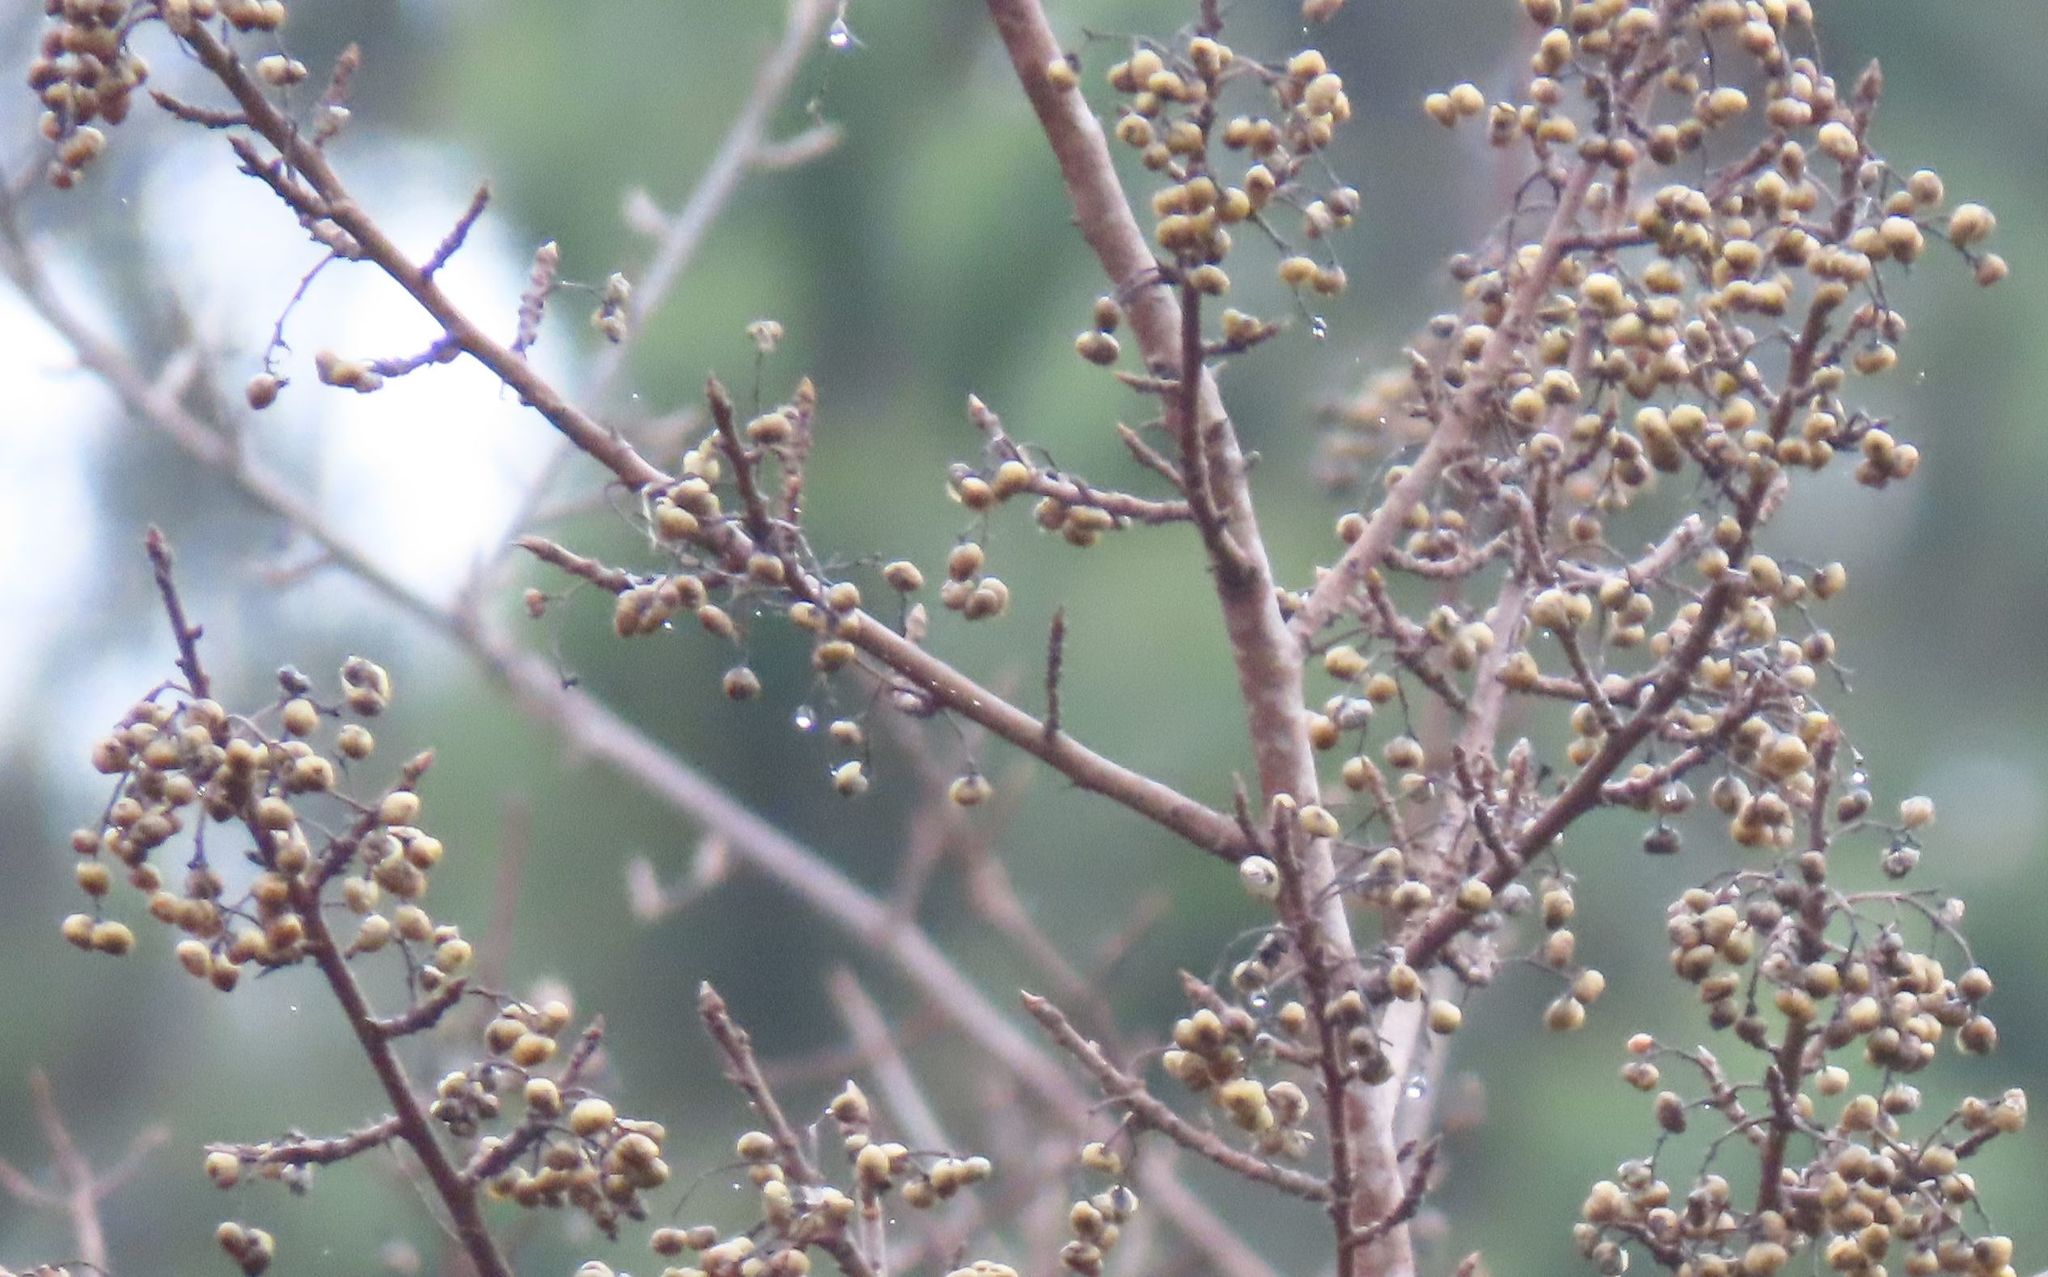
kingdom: Plantae
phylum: Tracheophyta
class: Magnoliopsida
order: Sapindales
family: Anacardiaceae
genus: Toxicodendron
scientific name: Toxicodendron diversilobum
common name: Pacific poison-oak
